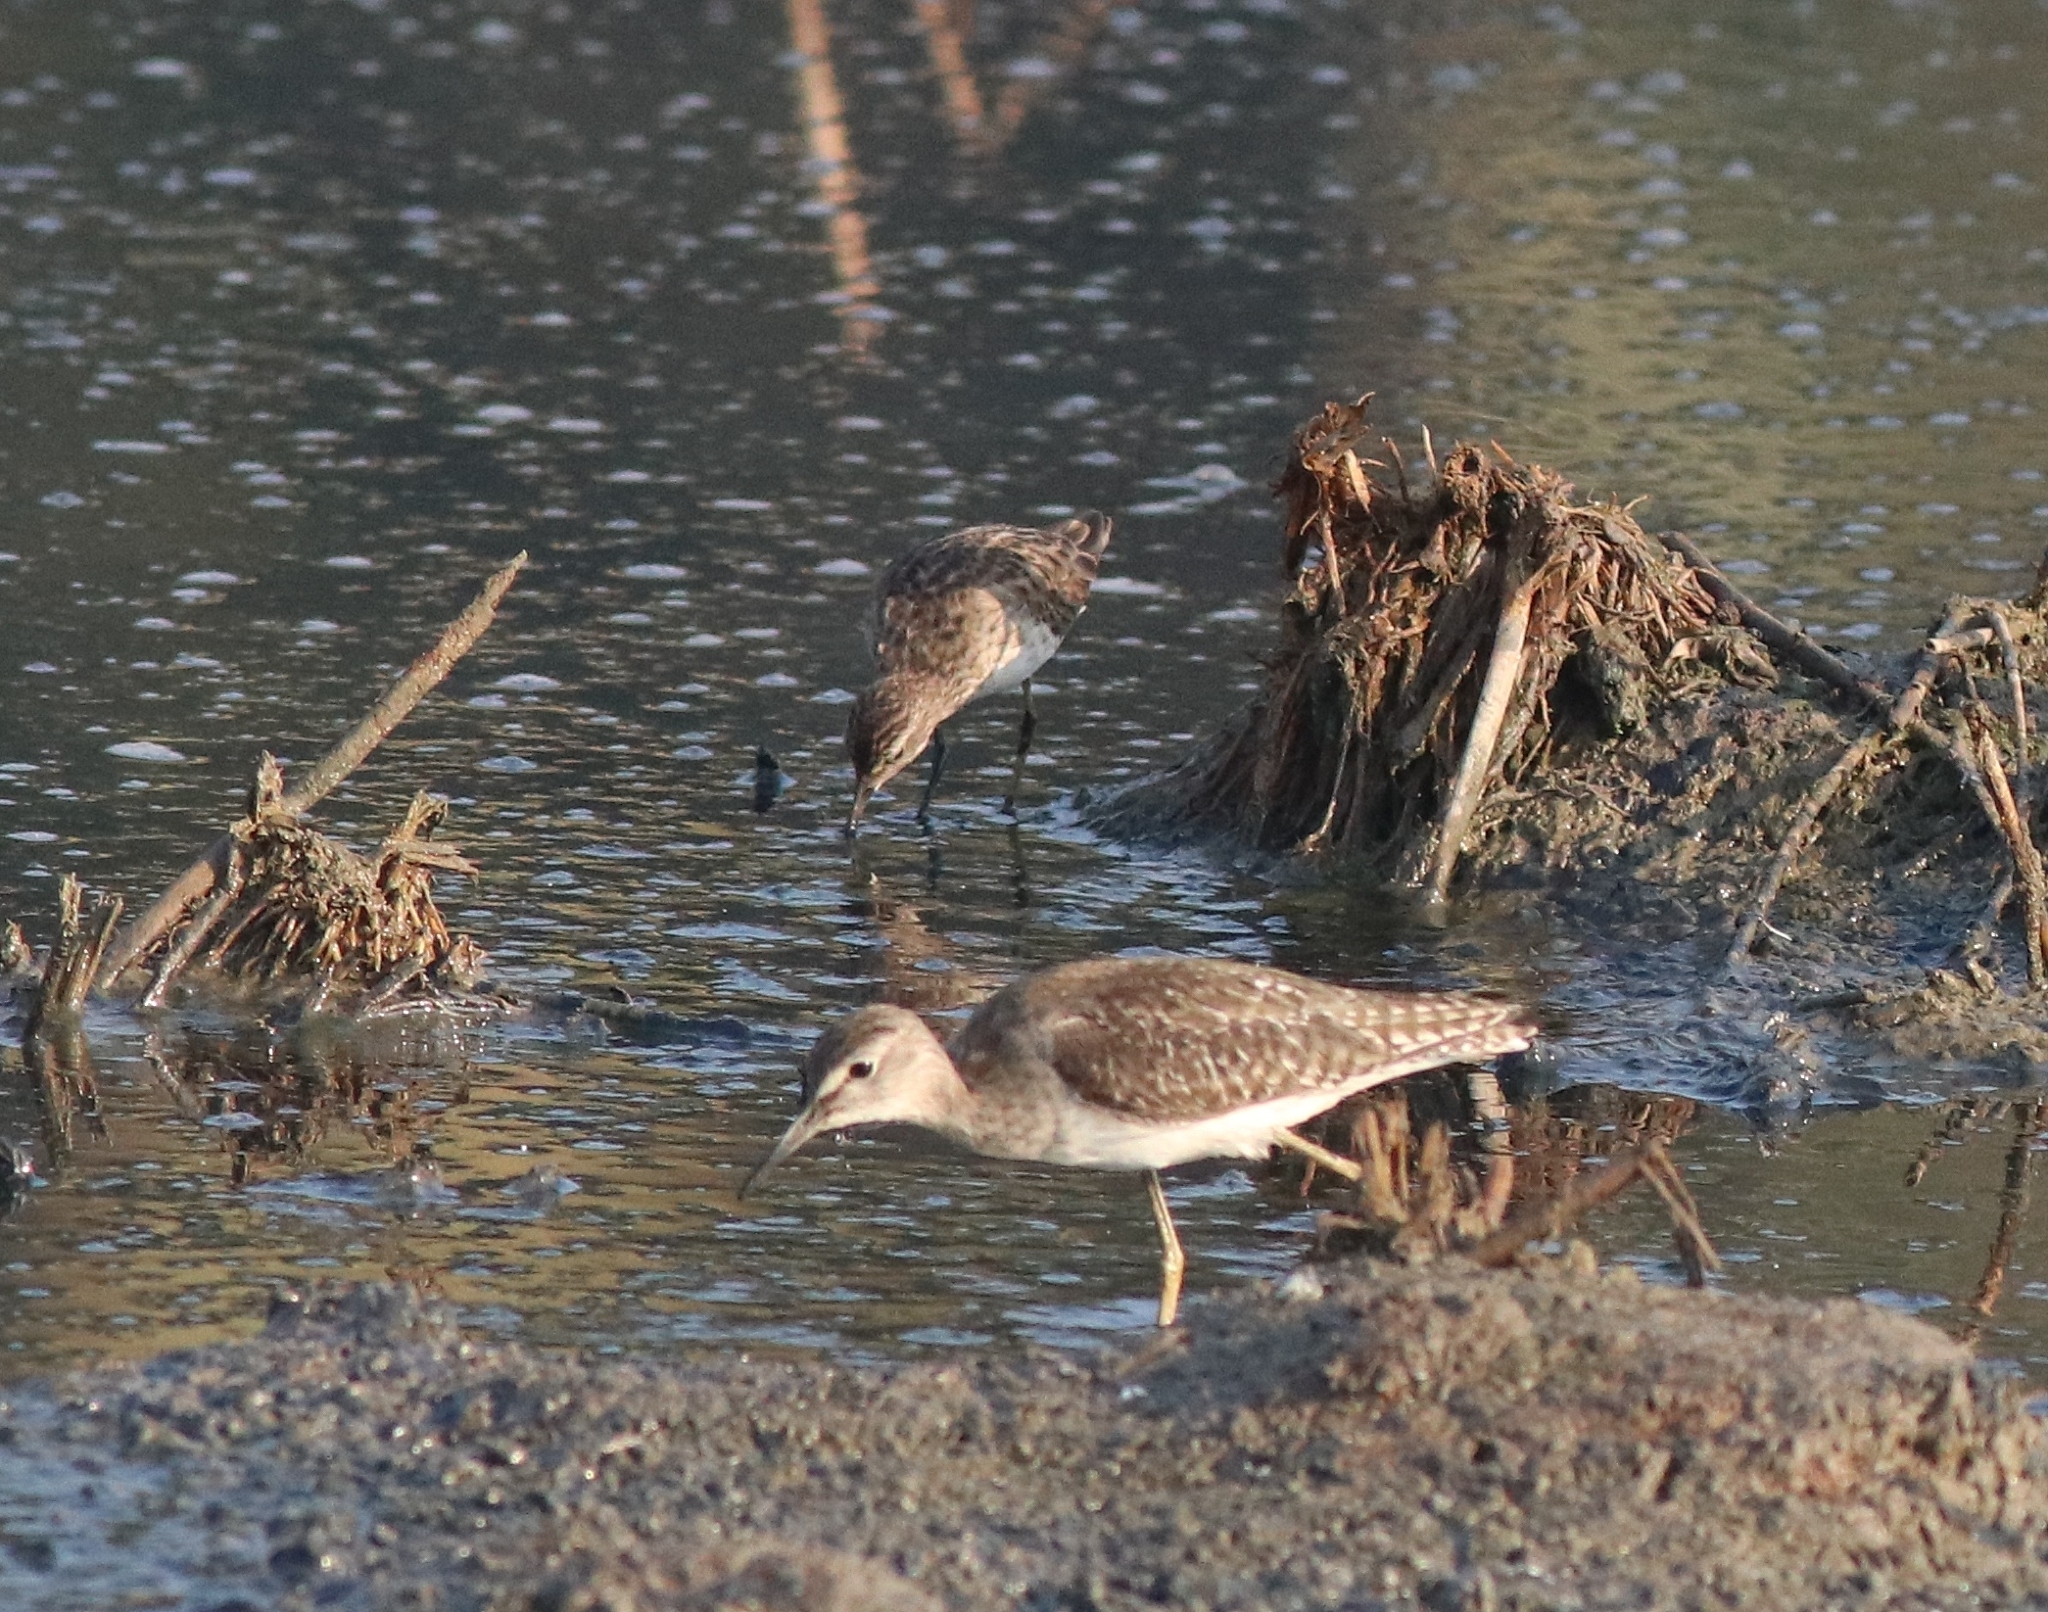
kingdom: Animalia
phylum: Chordata
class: Aves
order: Charadriiformes
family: Scolopacidae
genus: Tringa
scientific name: Tringa glareola
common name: Wood sandpiper
